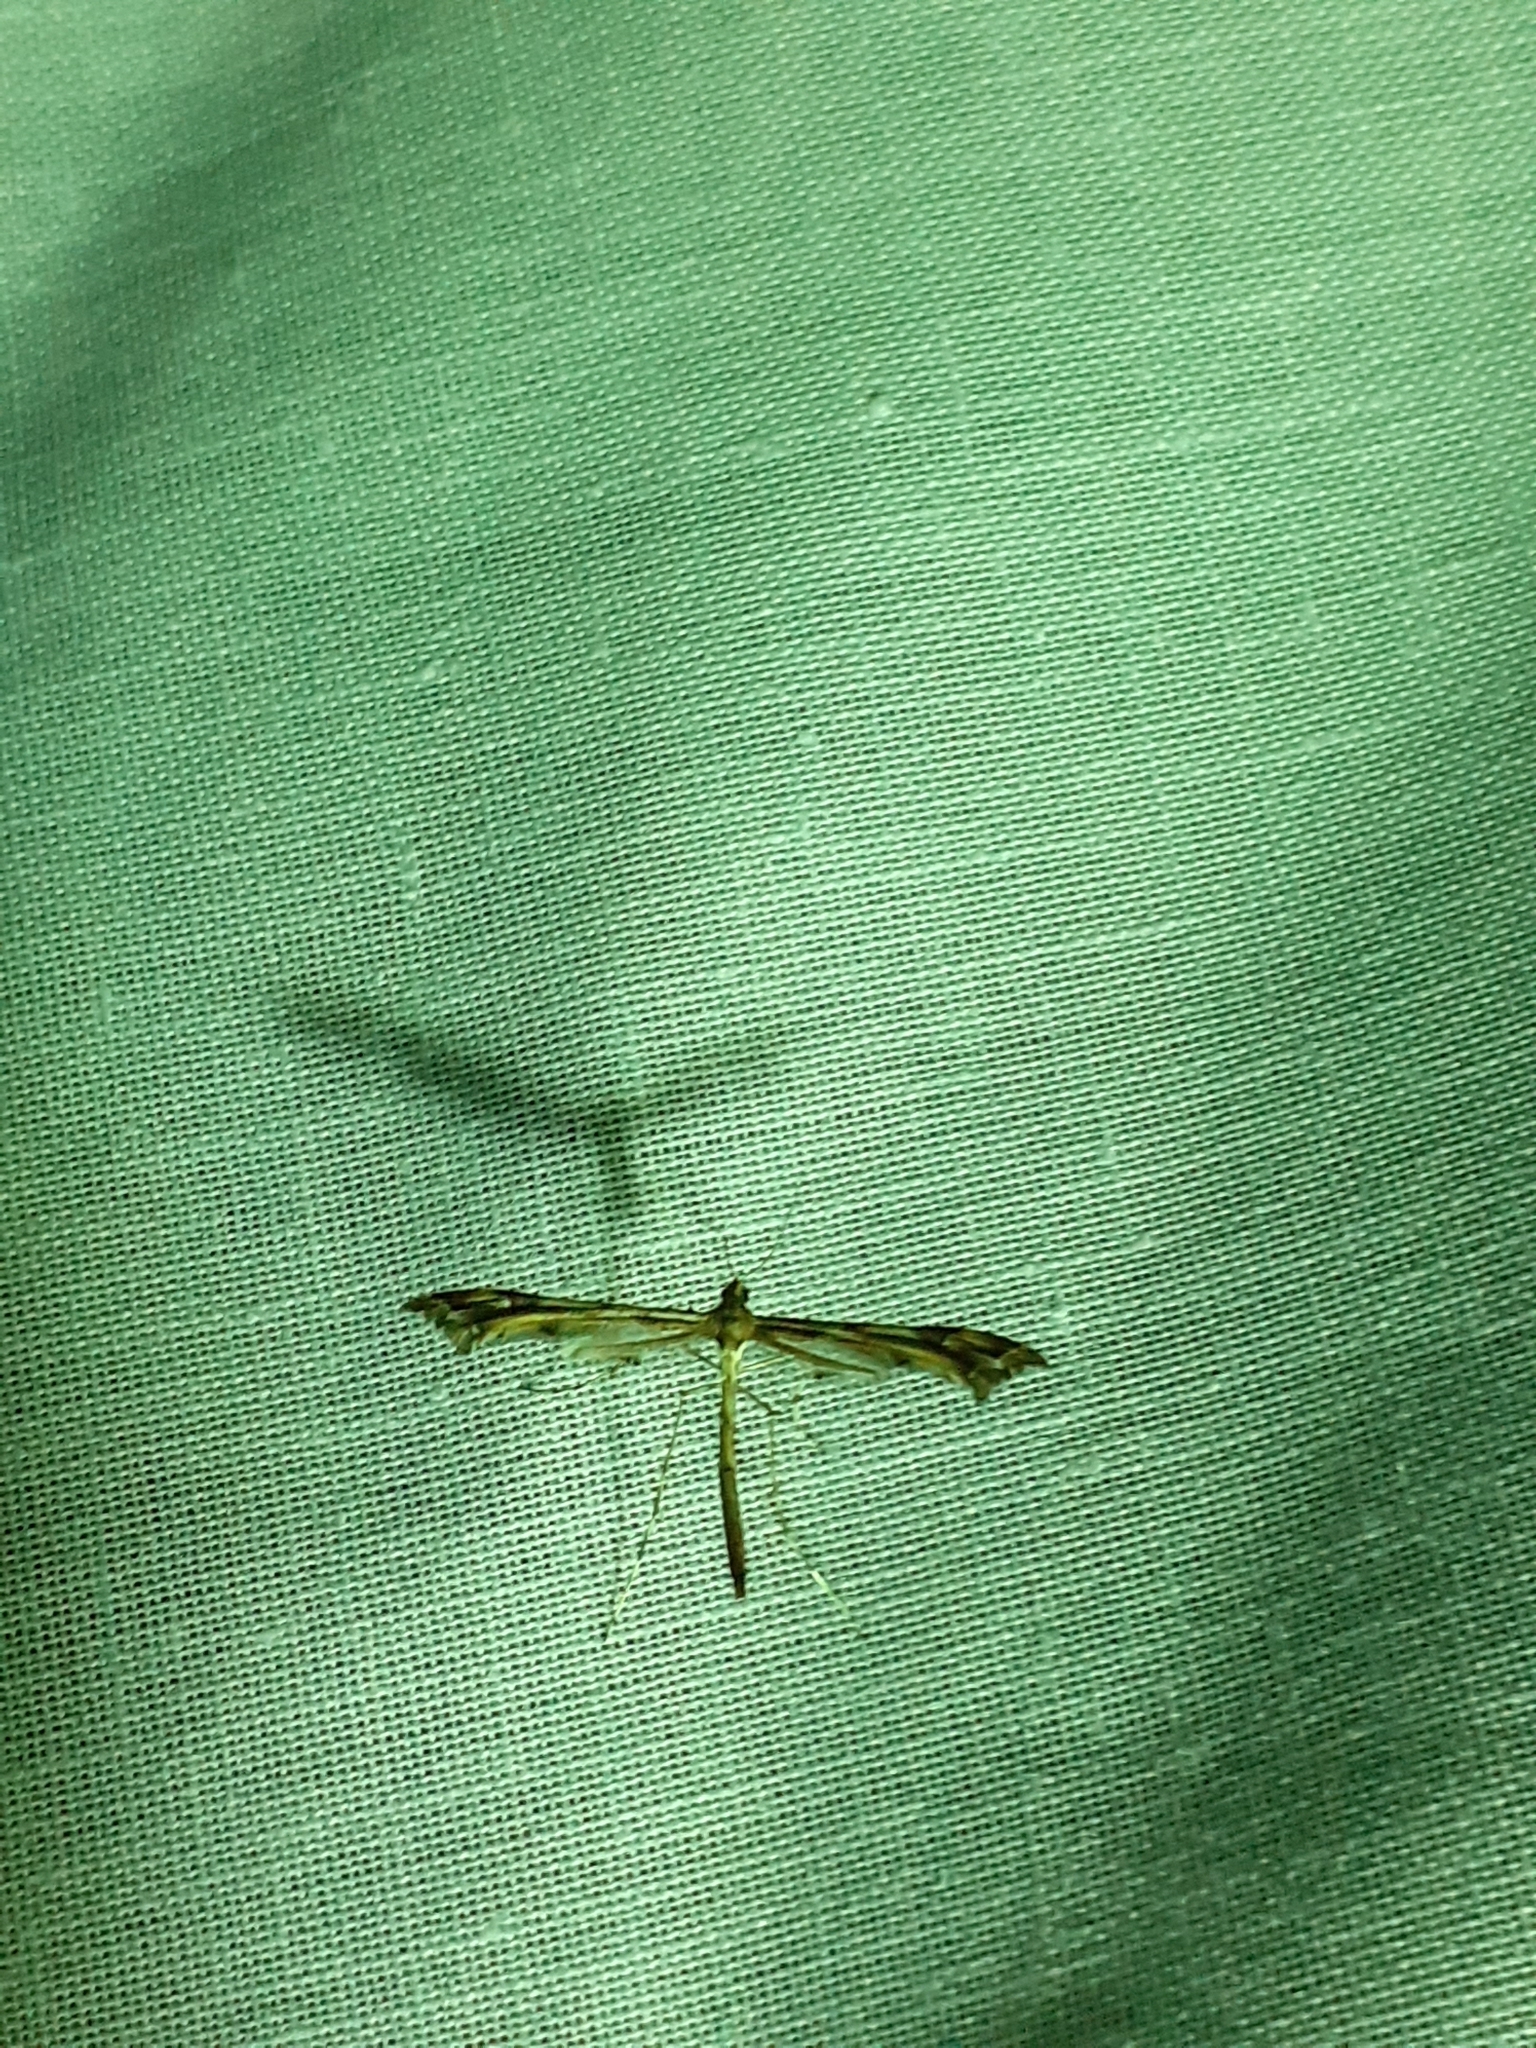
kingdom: Animalia
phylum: Arthropoda
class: Insecta
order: Lepidoptera
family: Pterophoridae
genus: Amblyptilia
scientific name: Amblyptilia acanthadactyla
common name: Beautiful plume
